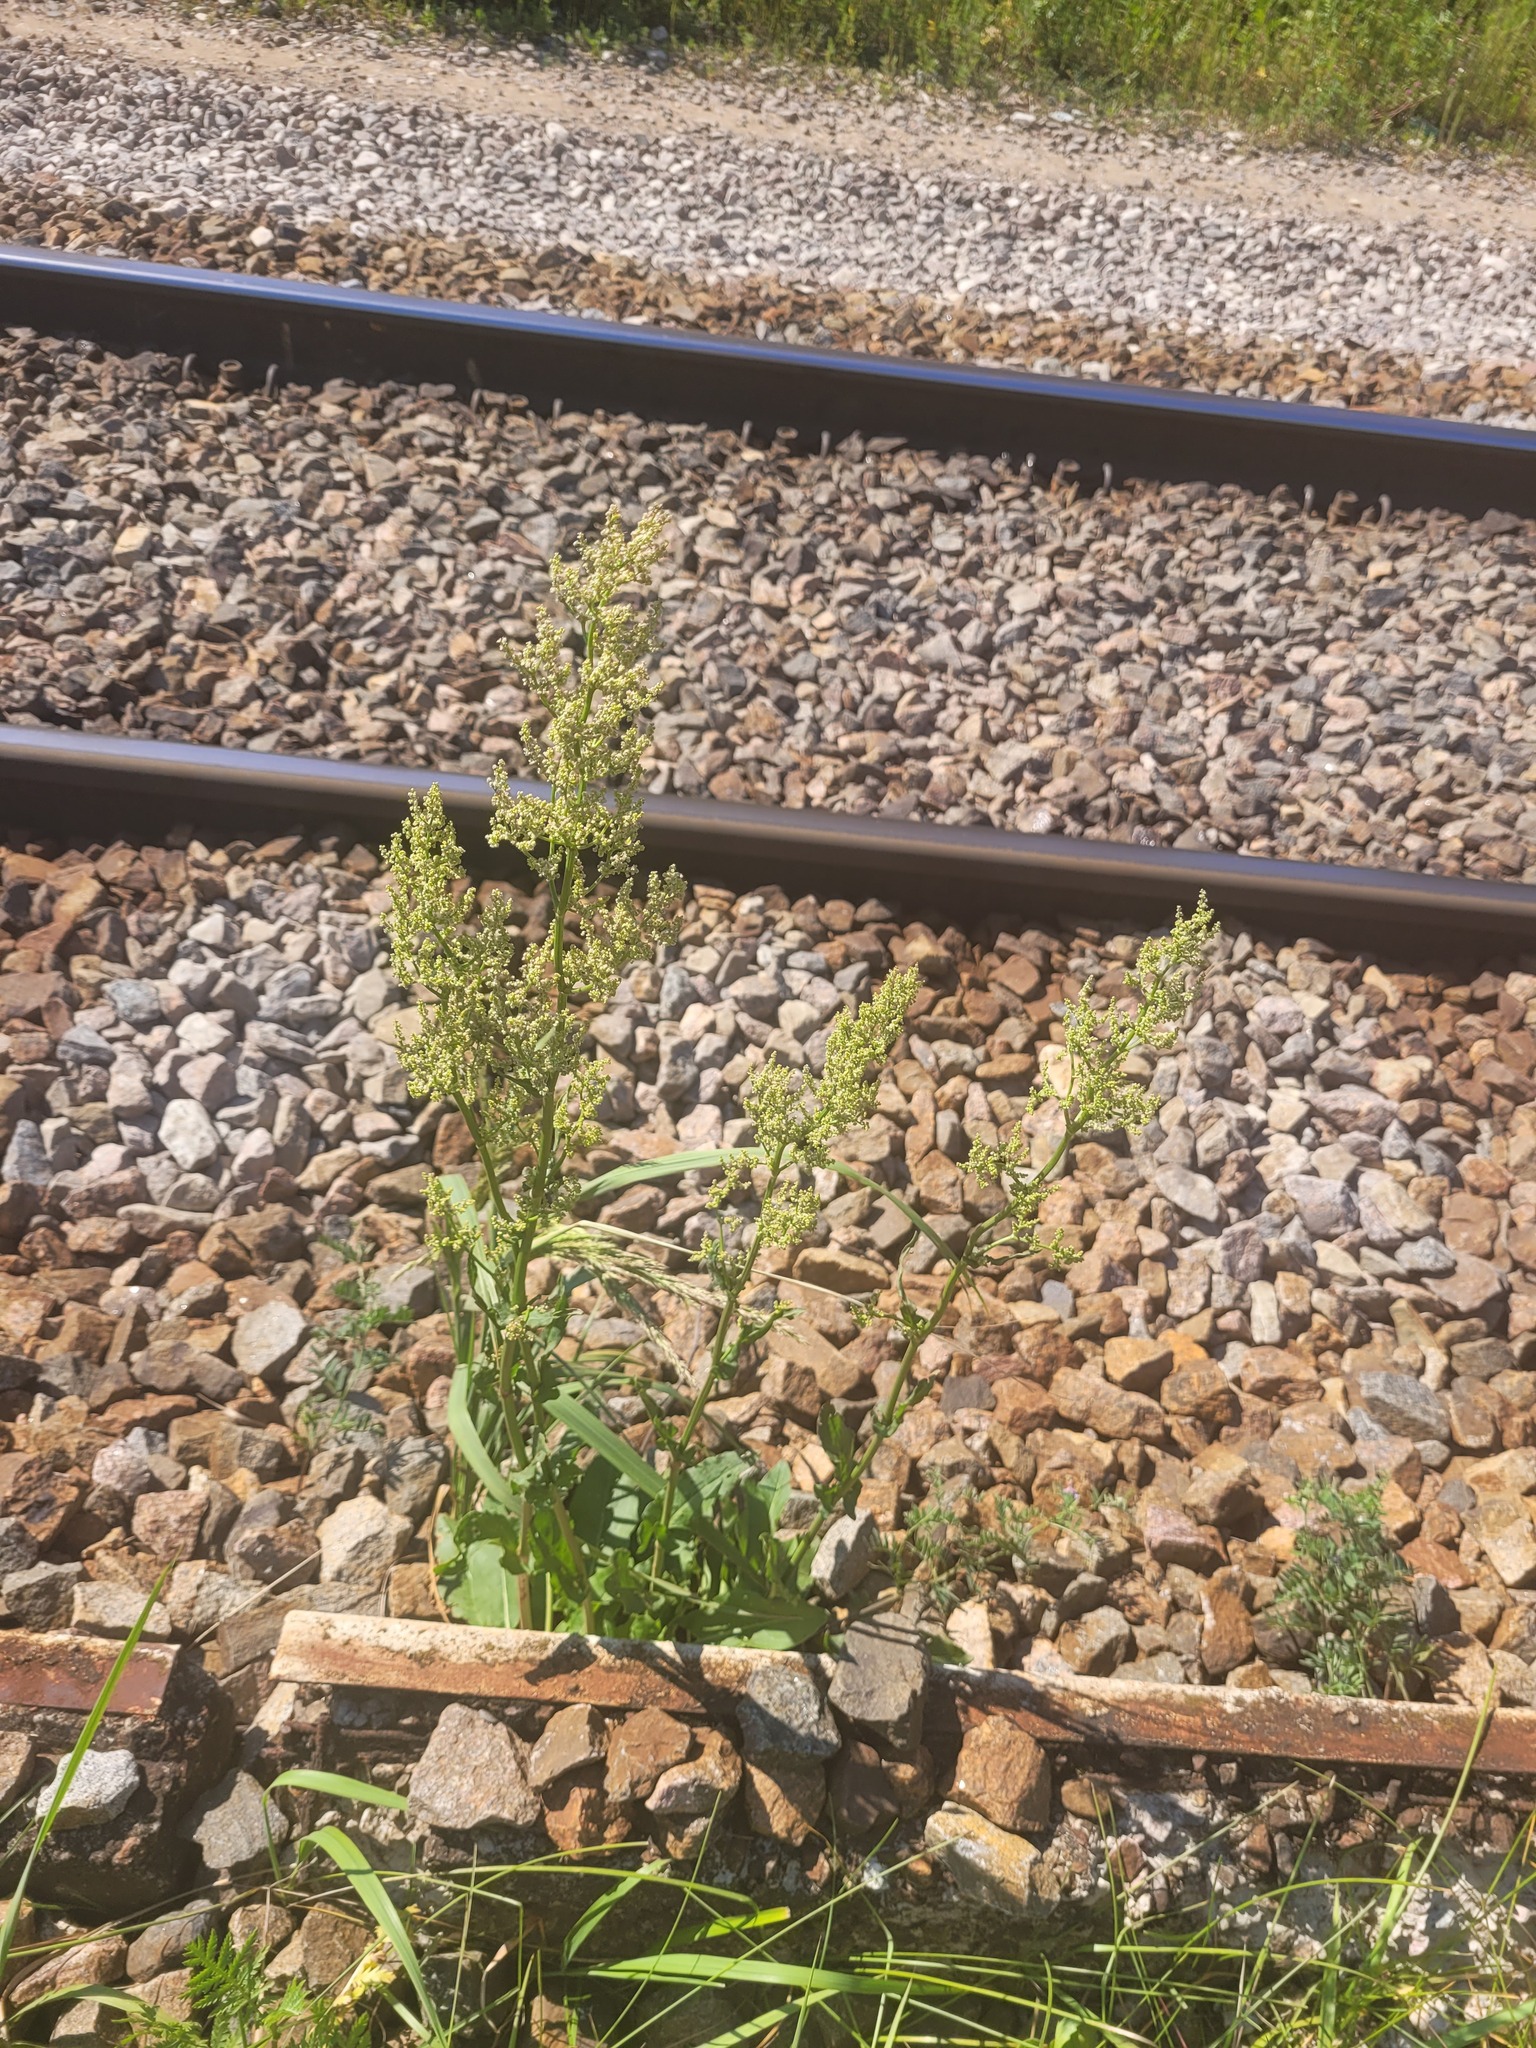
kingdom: Plantae
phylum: Tracheophyta
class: Magnoliopsida
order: Caryophyllales
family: Polygonaceae
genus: Rumex
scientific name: Rumex thyrsiflorus
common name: Garden sorrel
